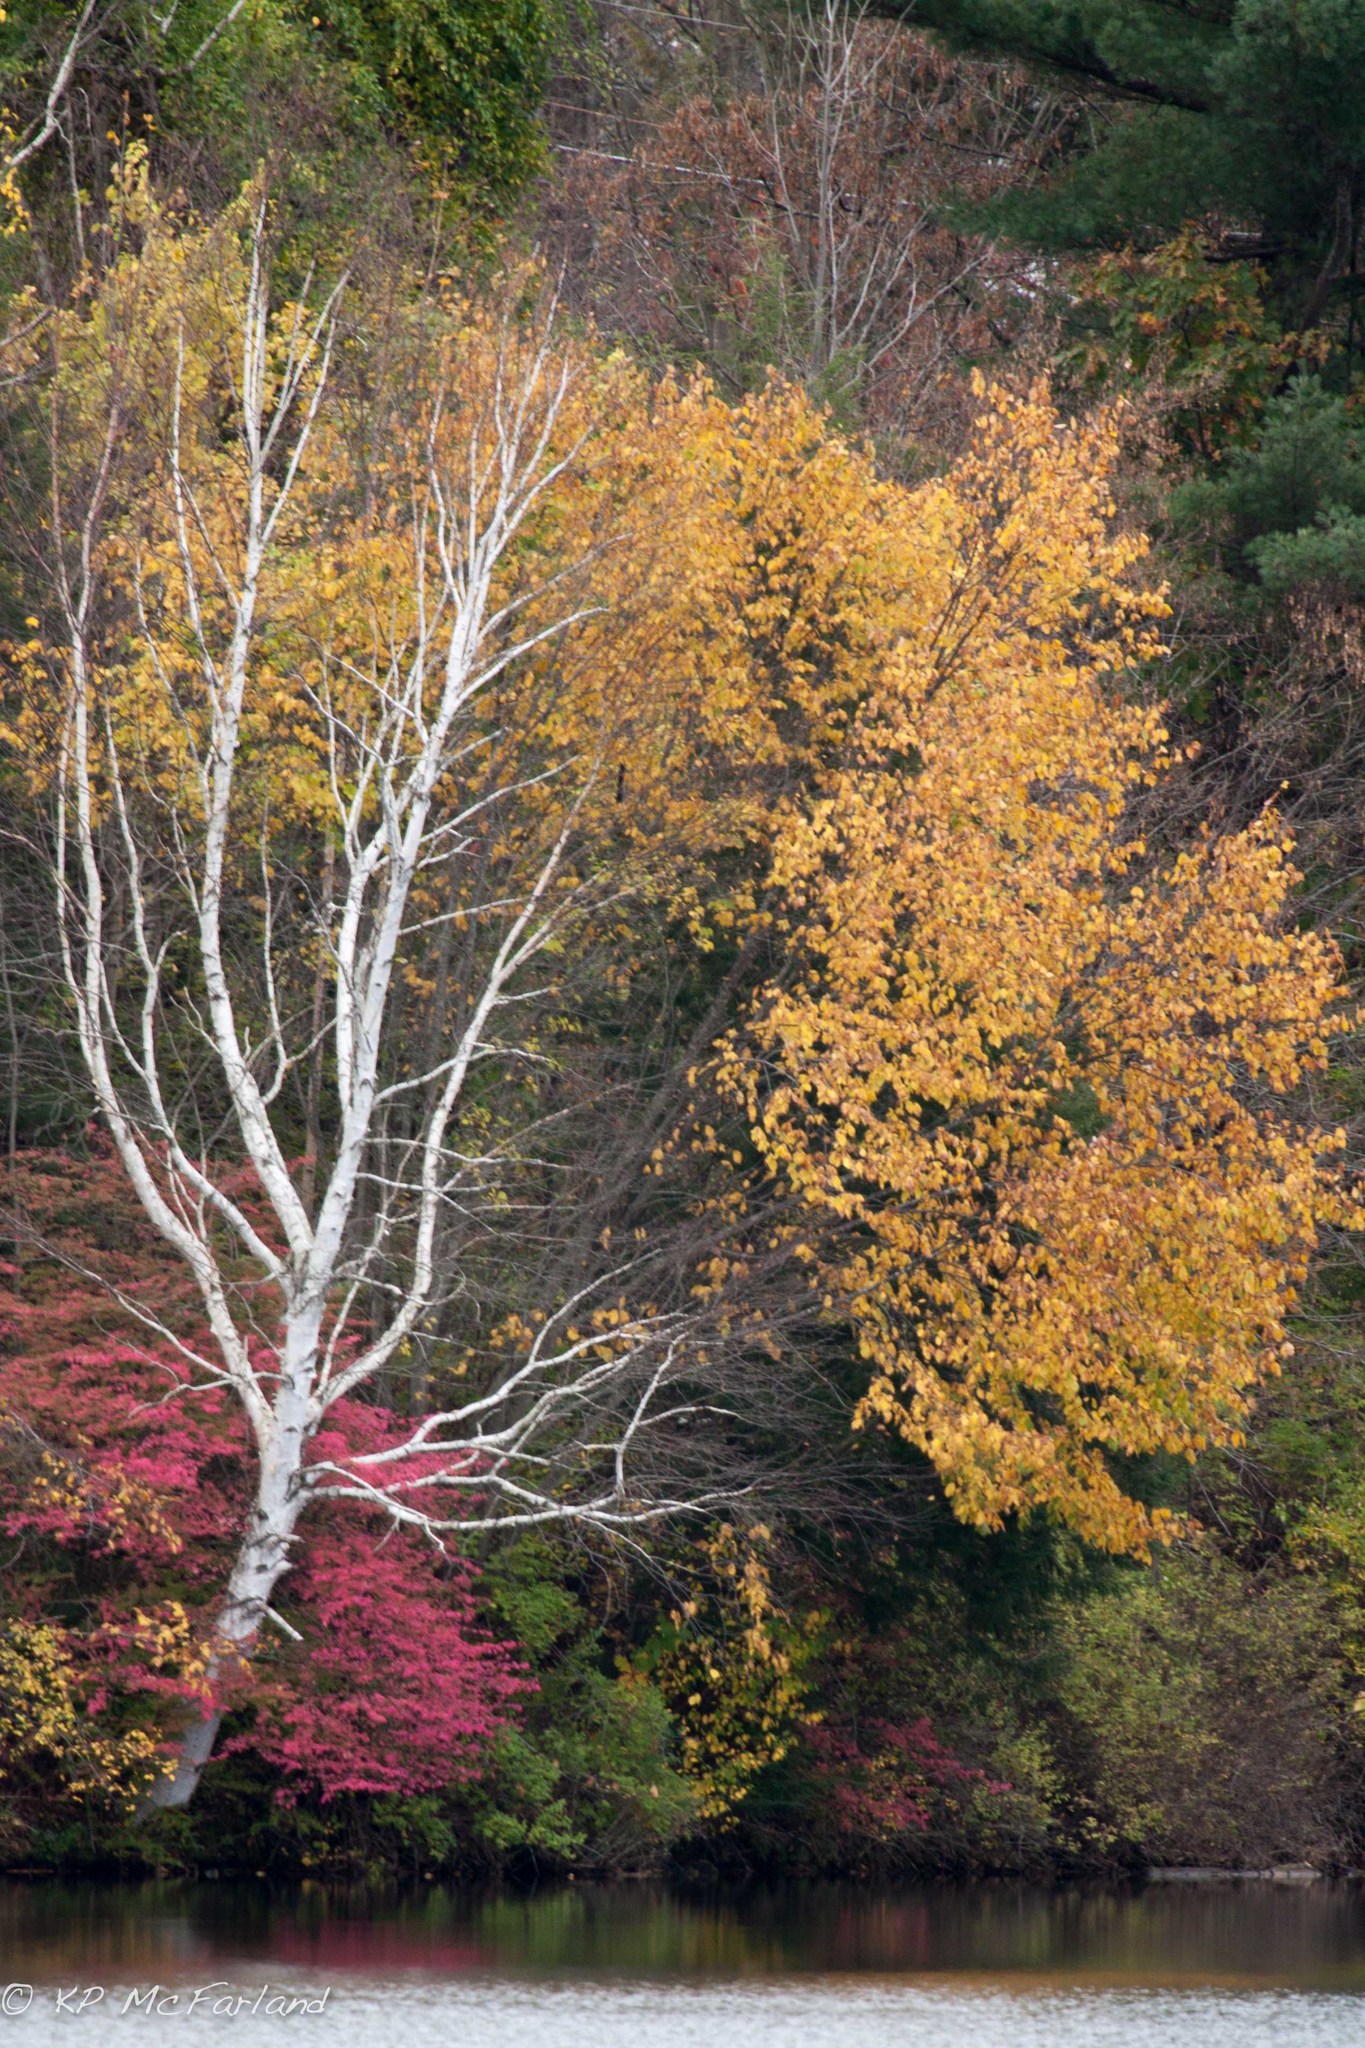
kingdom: Plantae
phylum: Tracheophyta
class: Magnoliopsida
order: Fagales
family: Betulaceae
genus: Betula
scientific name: Betula papyrifera
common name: Paper birch
